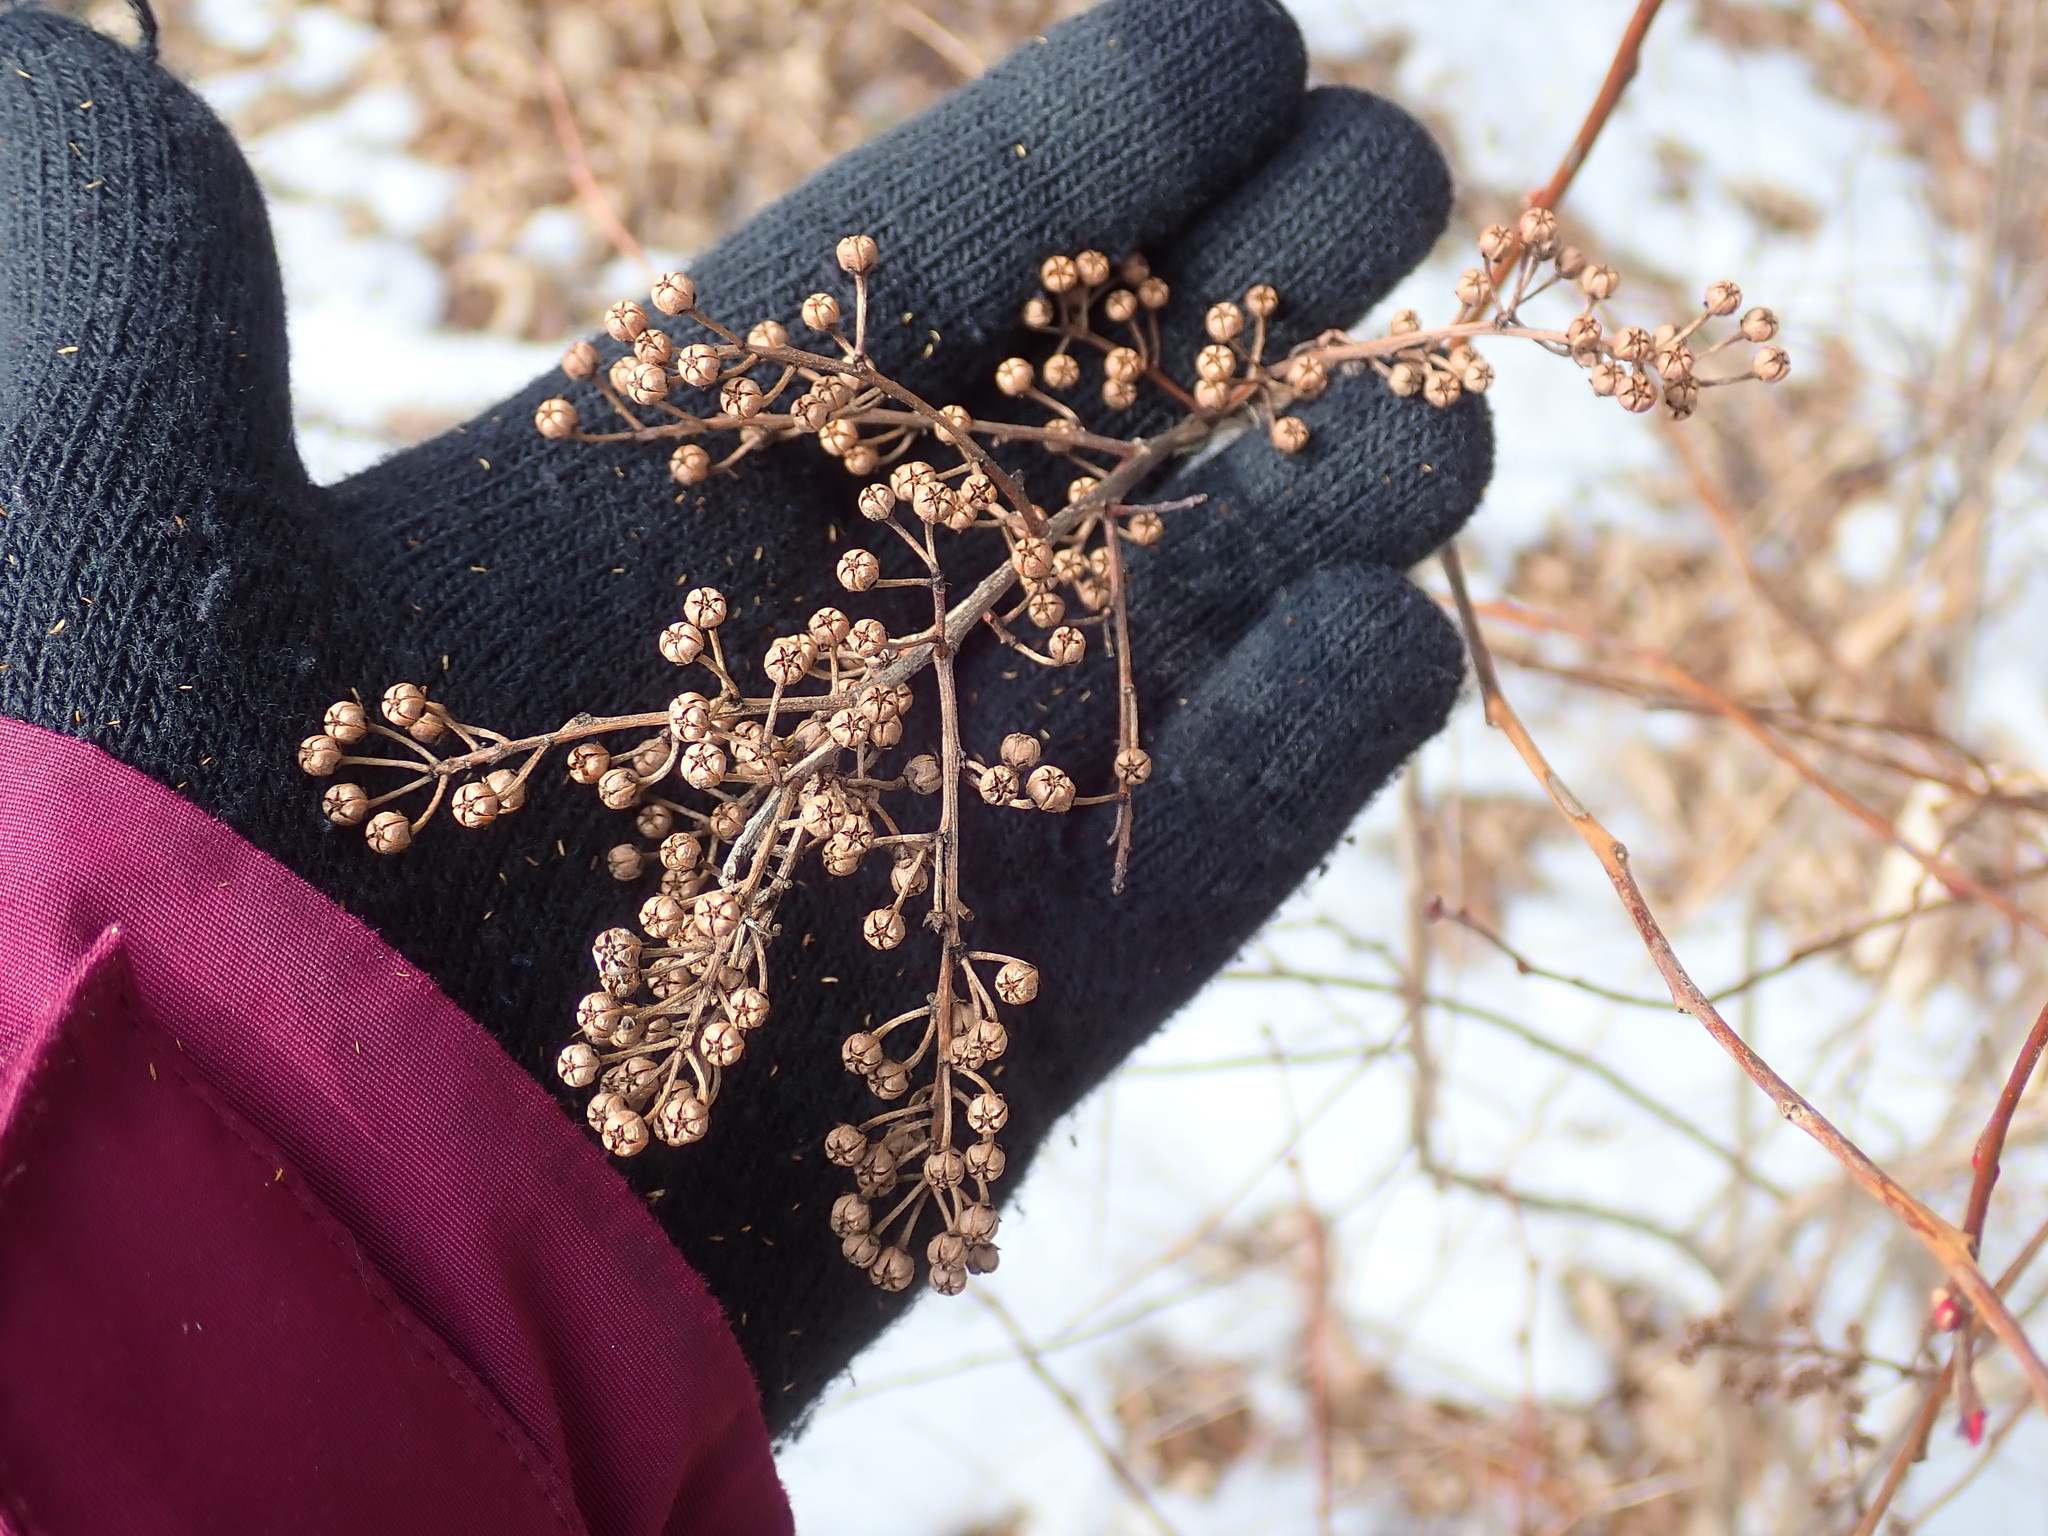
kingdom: Plantae
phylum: Tracheophyta
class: Magnoliopsida
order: Ericales
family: Ericaceae
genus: Lyonia
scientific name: Lyonia ligustrina
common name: Maleberry
